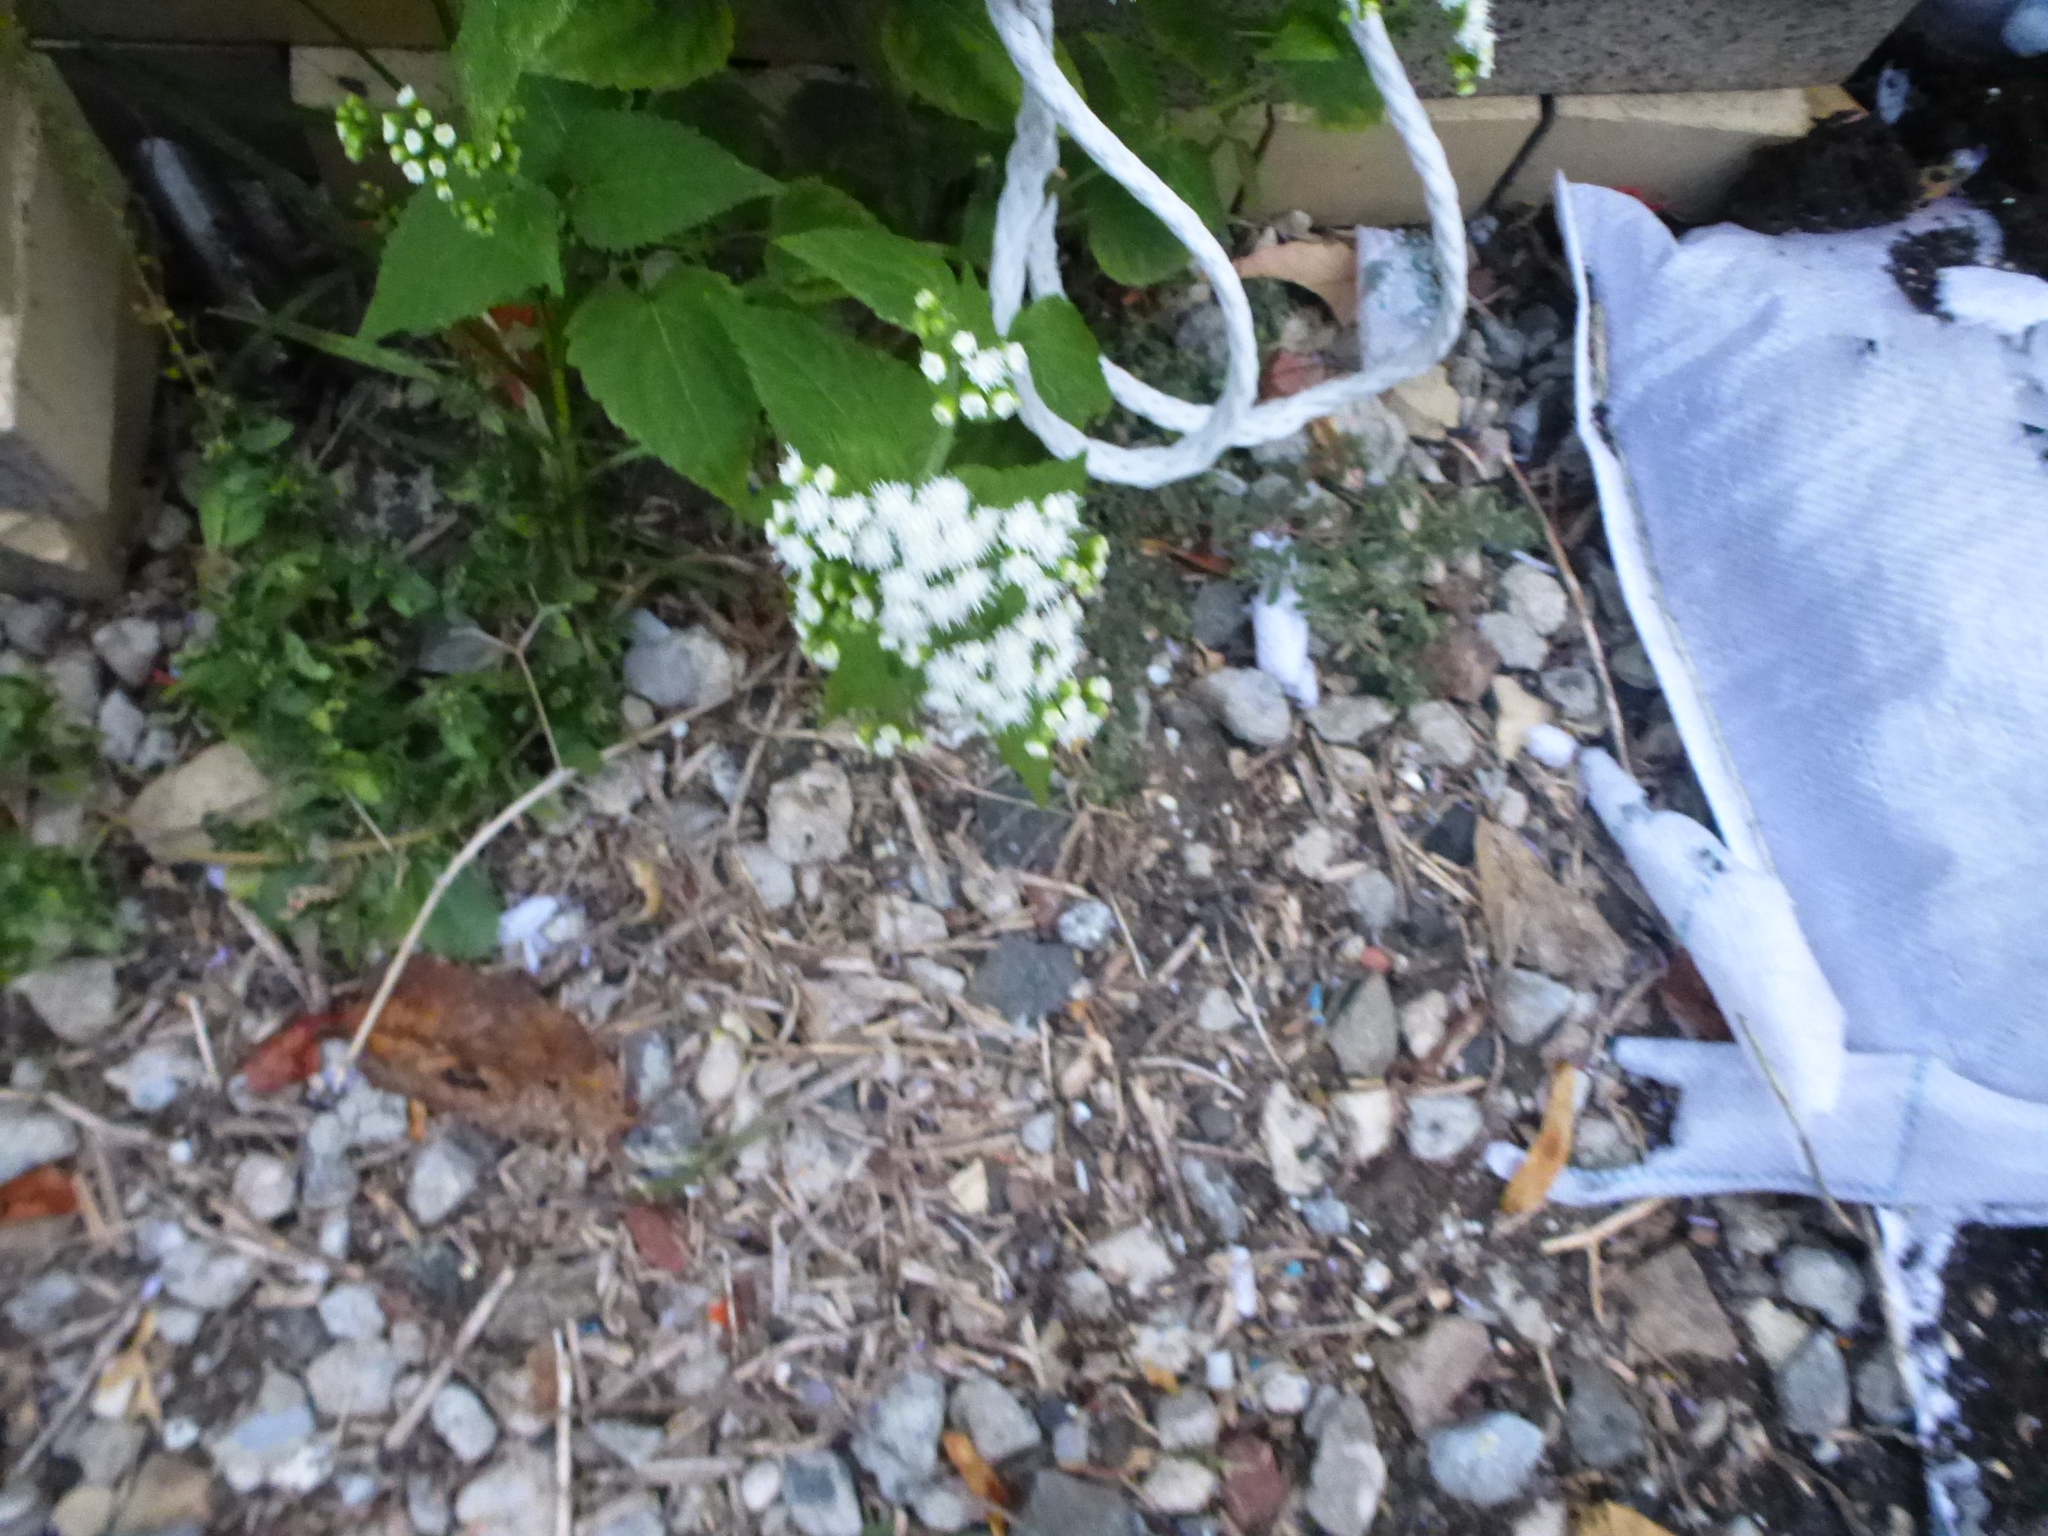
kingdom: Plantae
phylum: Tracheophyta
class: Magnoliopsida
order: Asterales
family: Asteraceae
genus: Ageratina
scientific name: Ageratina altissima
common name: White snakeroot
